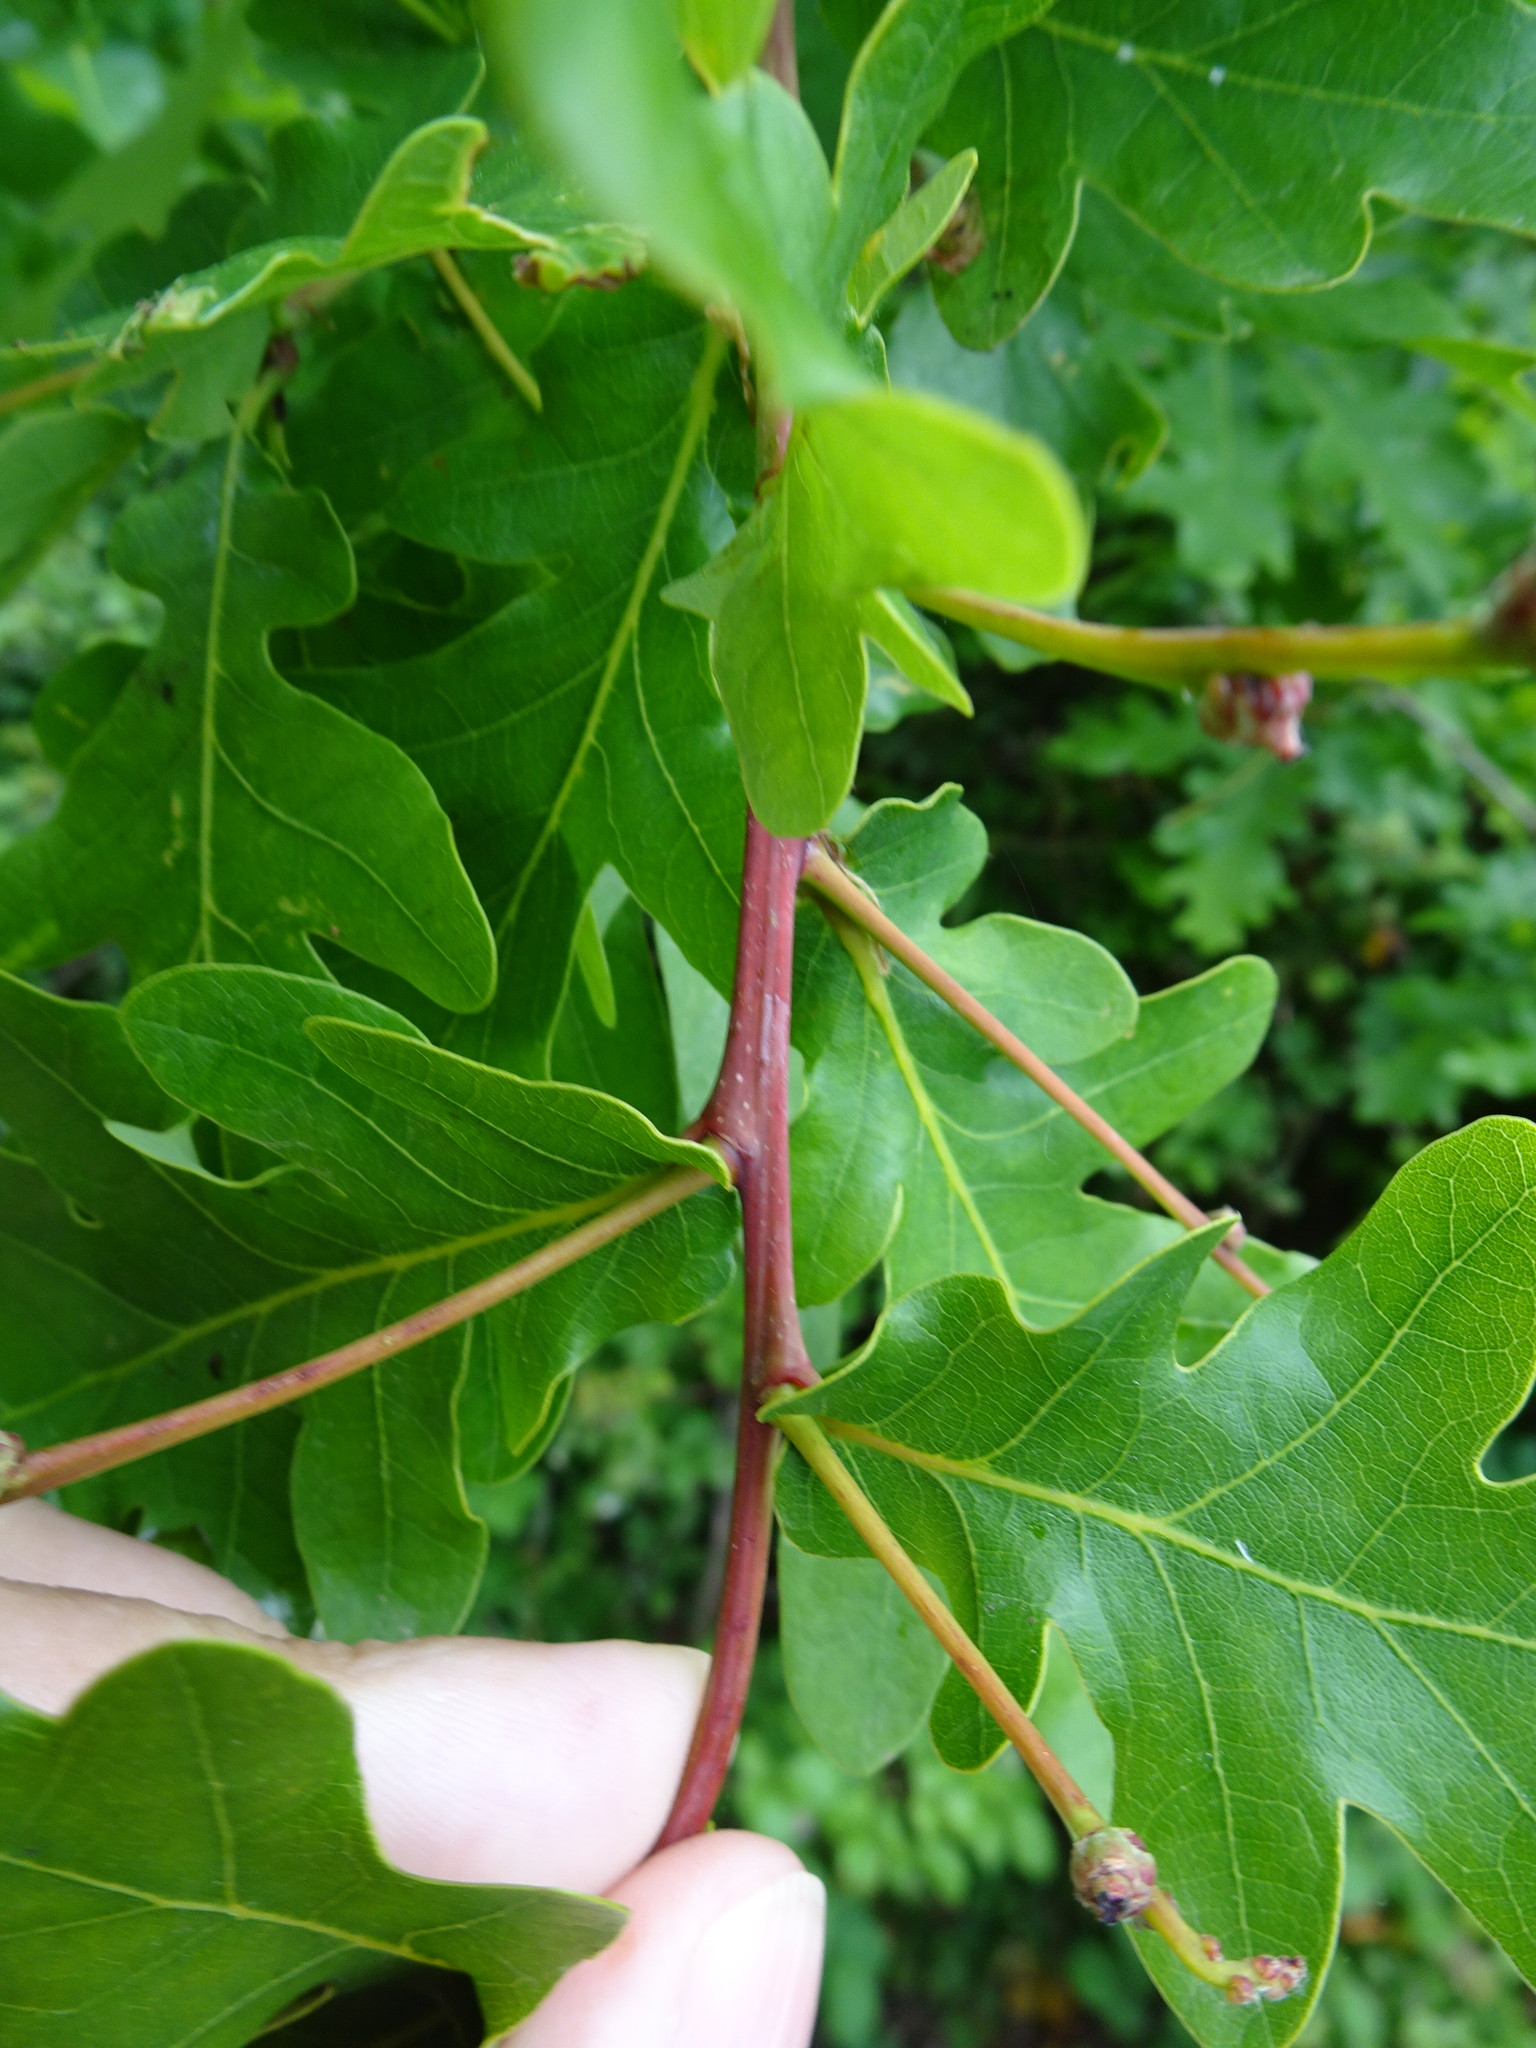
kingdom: Plantae
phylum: Tracheophyta
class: Magnoliopsida
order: Fagales
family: Fagaceae
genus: Quercus
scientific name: Quercus robur
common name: Pedunculate oak
